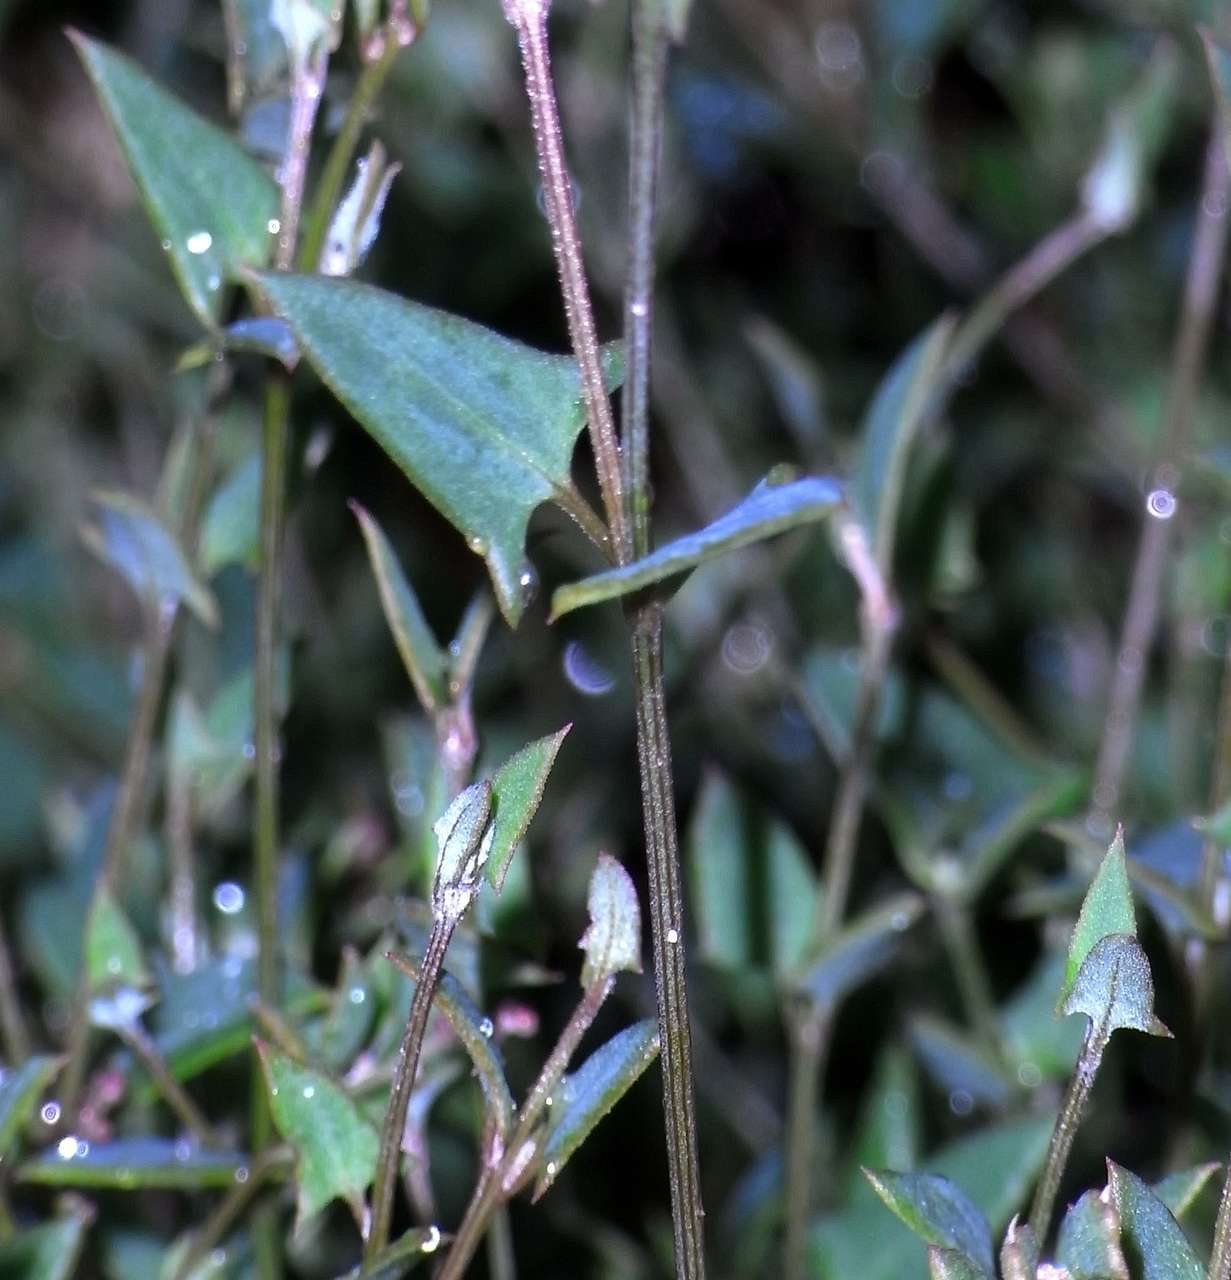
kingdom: Plantae
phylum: Tracheophyta
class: Magnoliopsida
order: Caryophyllales
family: Amaranthaceae
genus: Chenopodium
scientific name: Chenopodium nutans
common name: Climbing-saltbush
